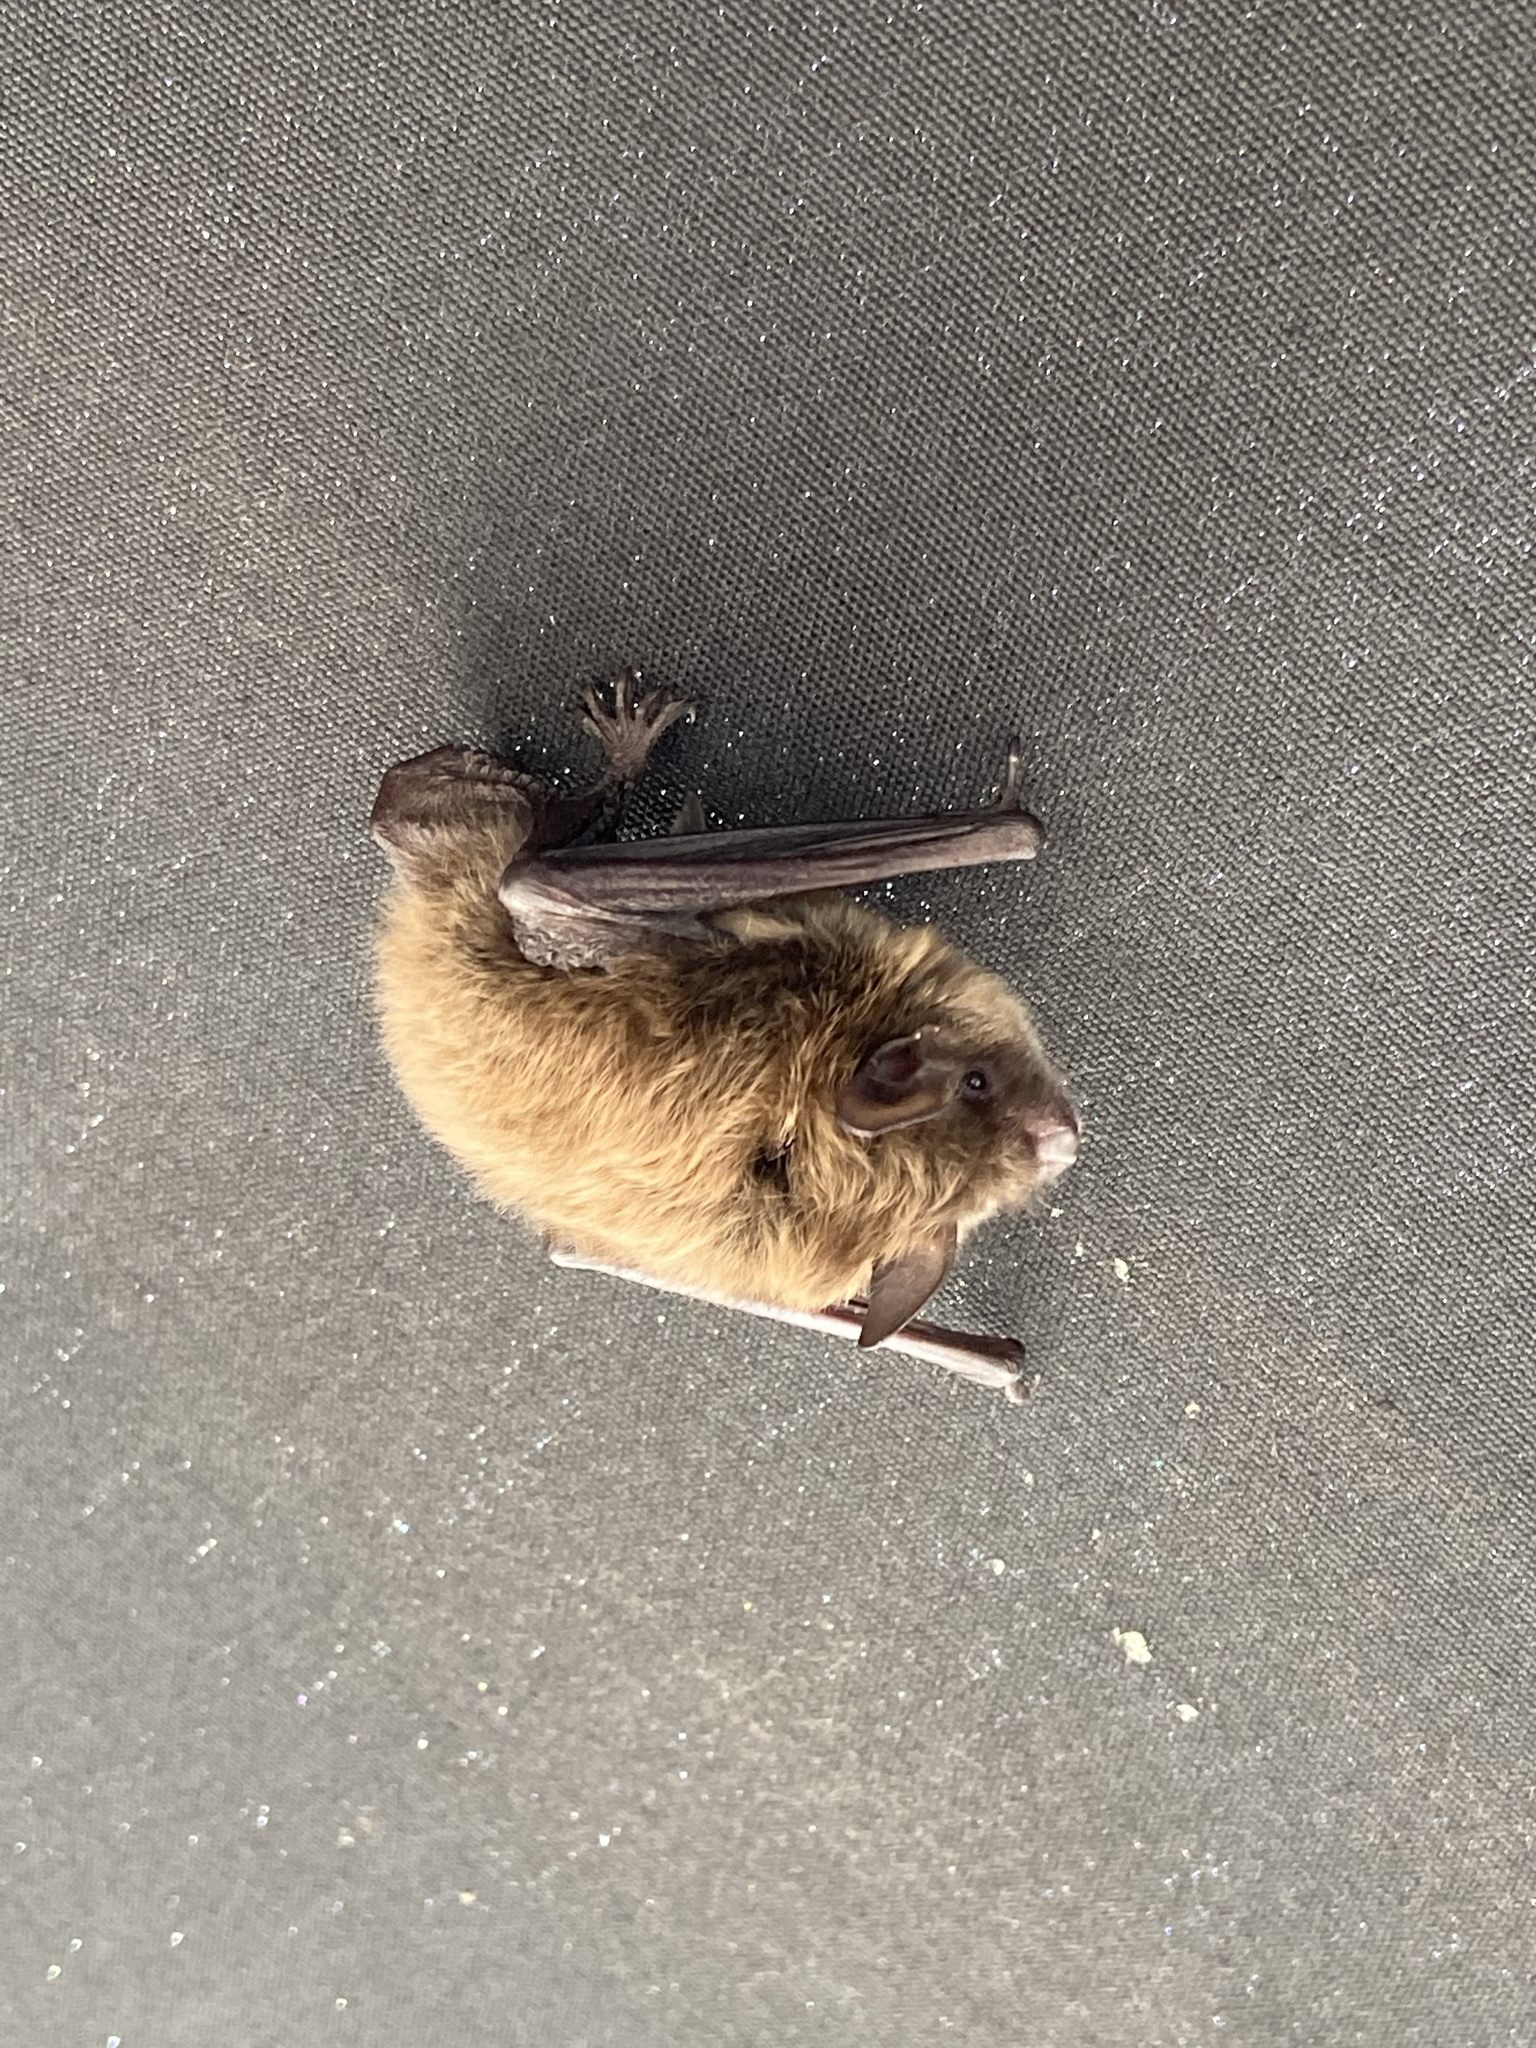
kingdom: Animalia
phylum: Chordata
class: Mammalia
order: Chiroptera
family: Vespertilionidae
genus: Myotis
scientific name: Myotis lucifugus
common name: Little brown bat
